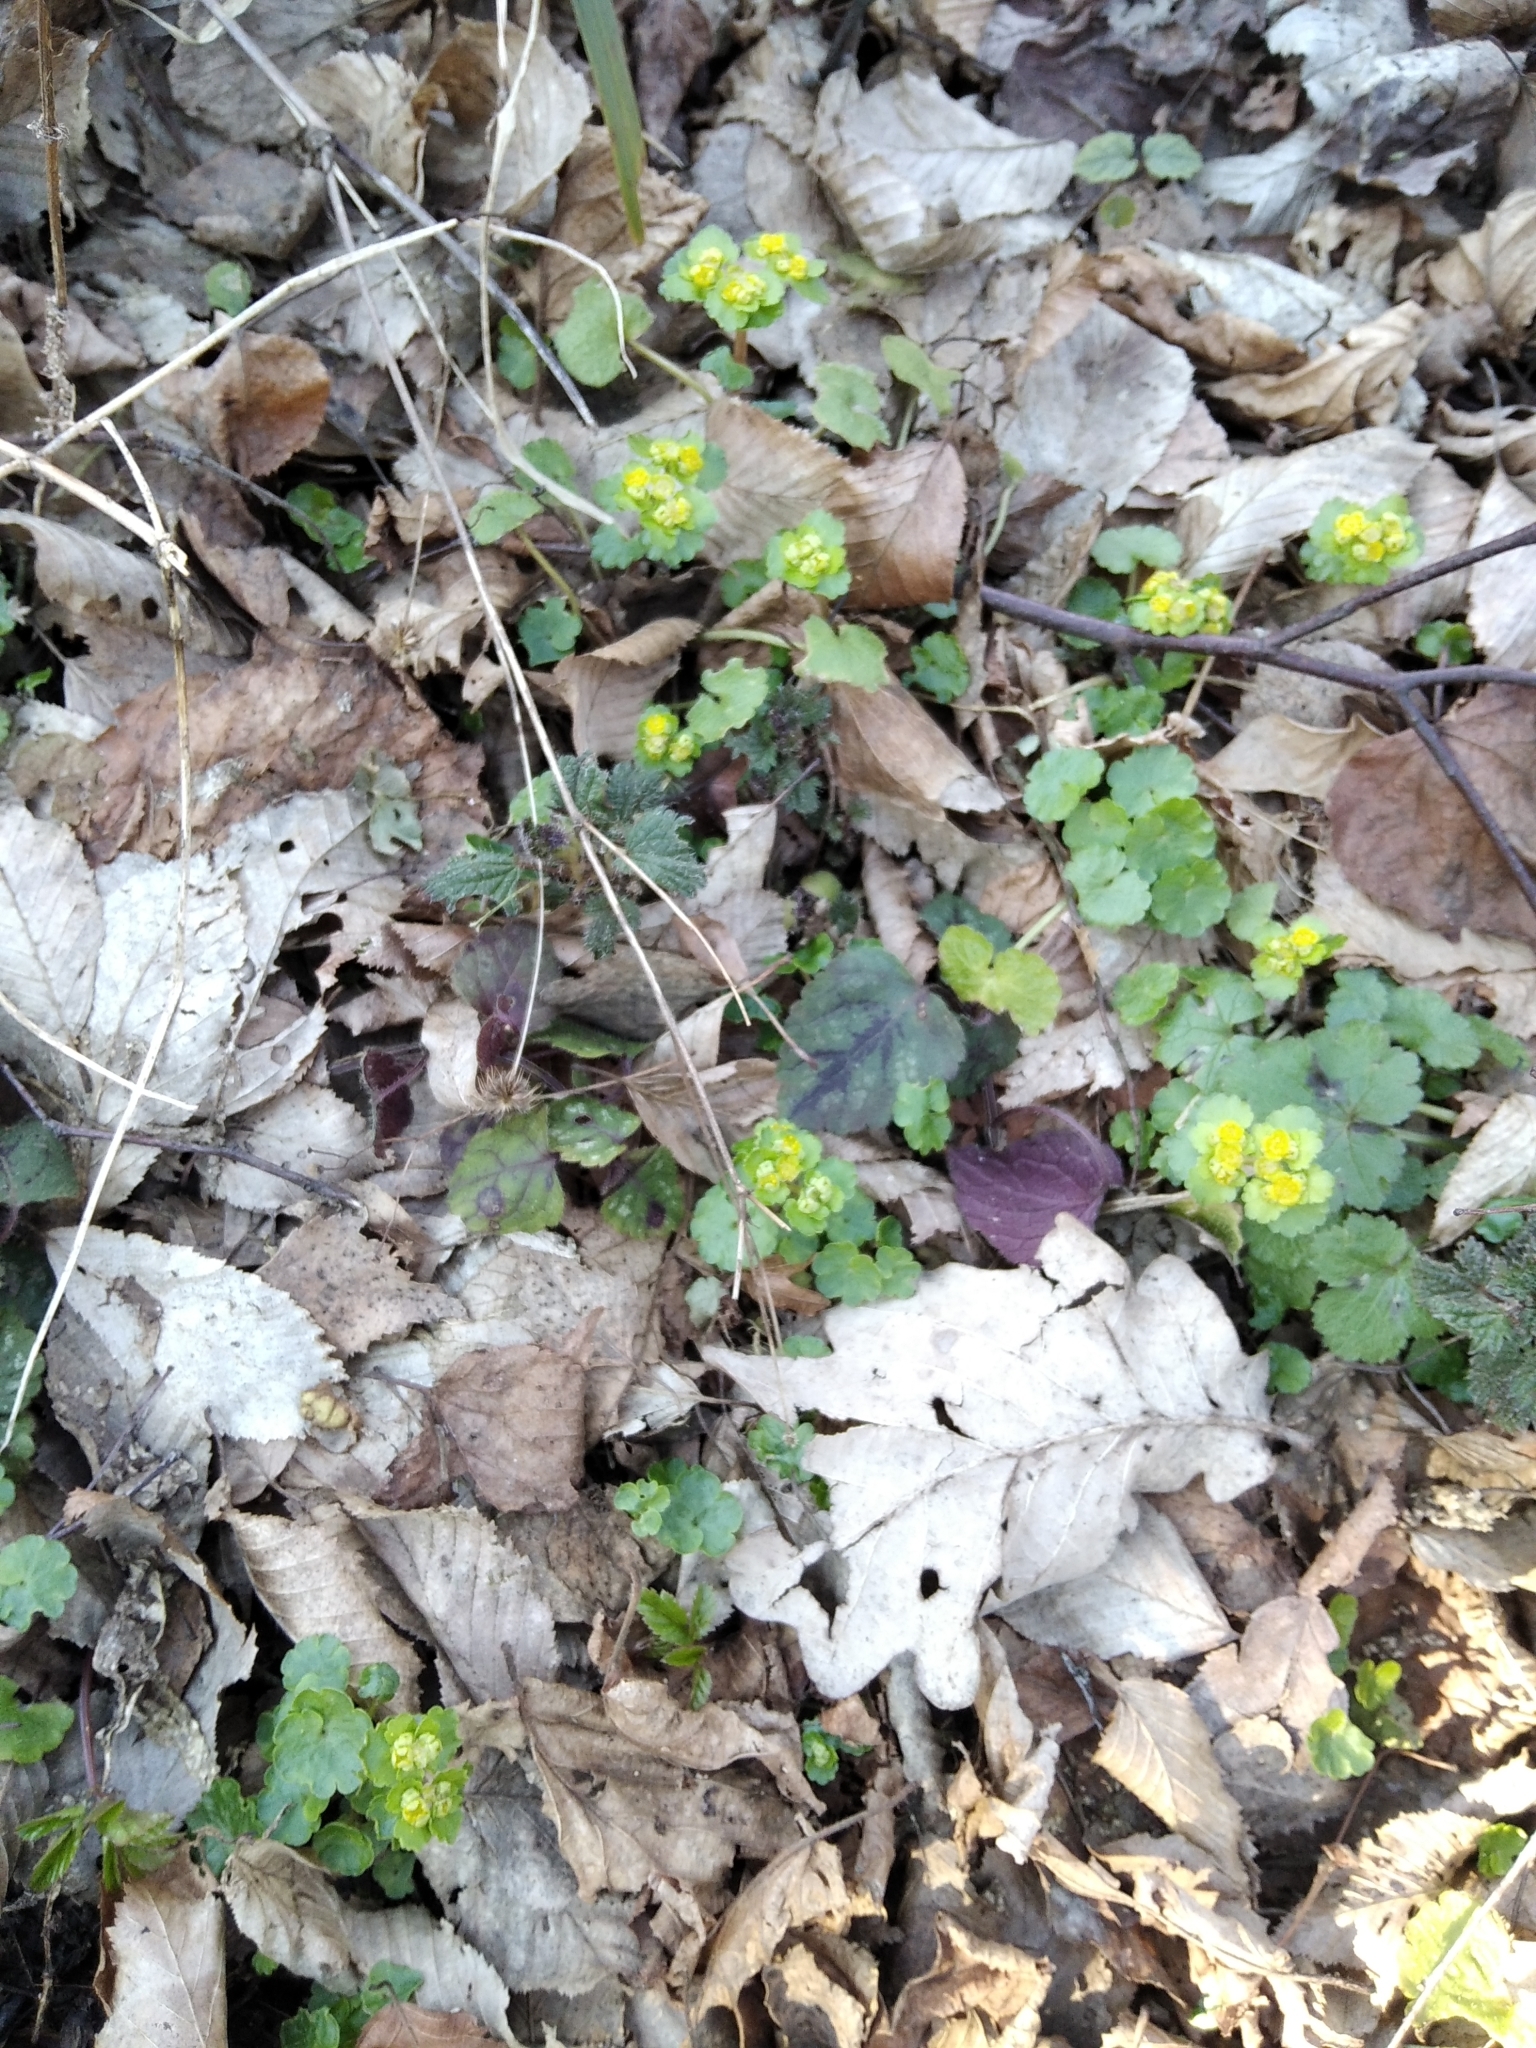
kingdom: Plantae
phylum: Tracheophyta
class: Magnoliopsida
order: Saxifragales
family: Saxifragaceae
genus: Chrysosplenium
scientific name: Chrysosplenium alternifolium
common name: Alternate-leaved golden-saxifrage
